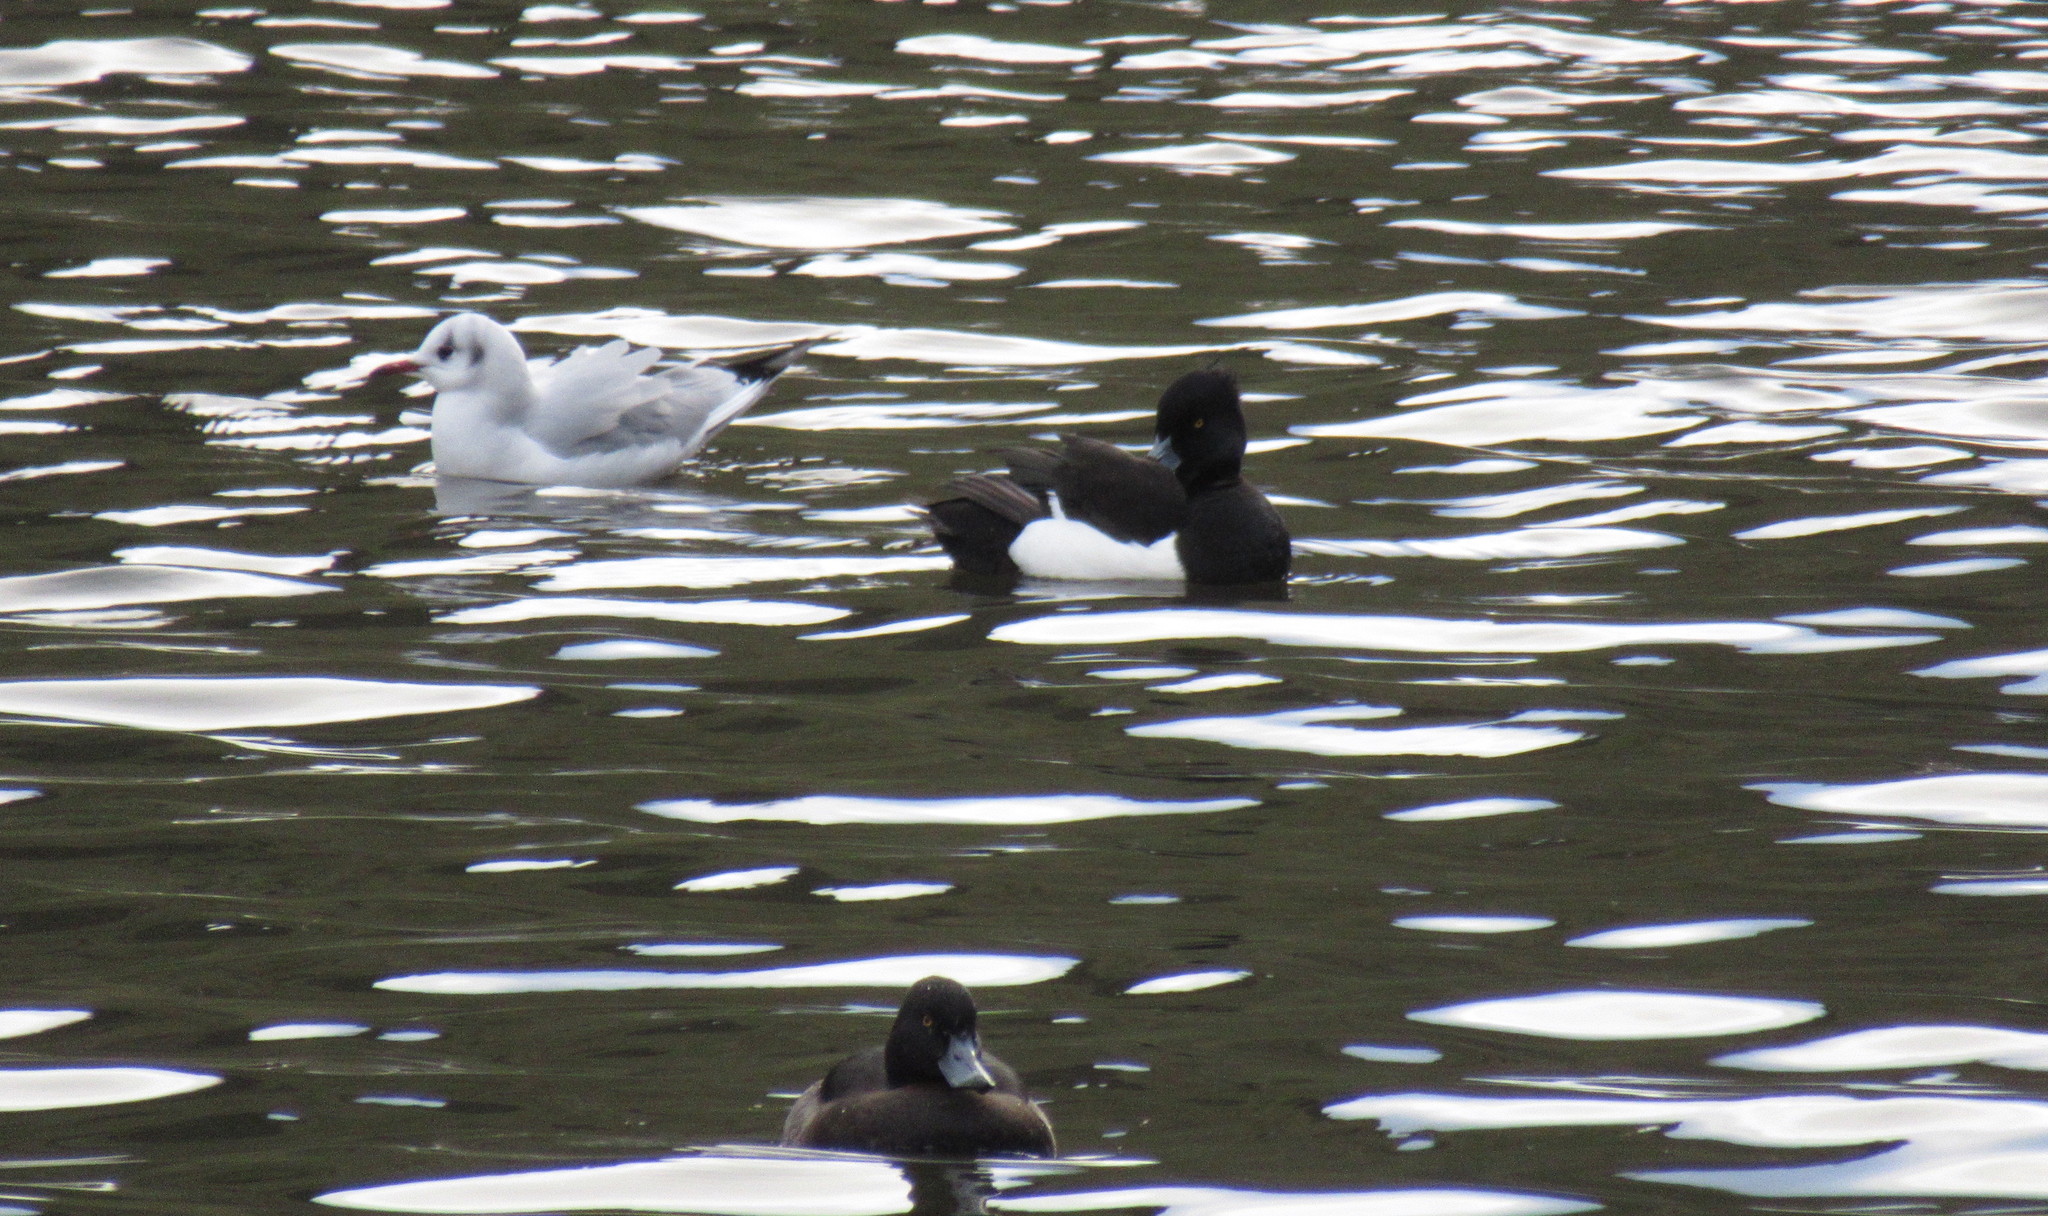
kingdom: Animalia
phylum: Chordata
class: Aves
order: Charadriiformes
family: Laridae
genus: Chroicocephalus
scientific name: Chroicocephalus ridibundus
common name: Black-headed gull
